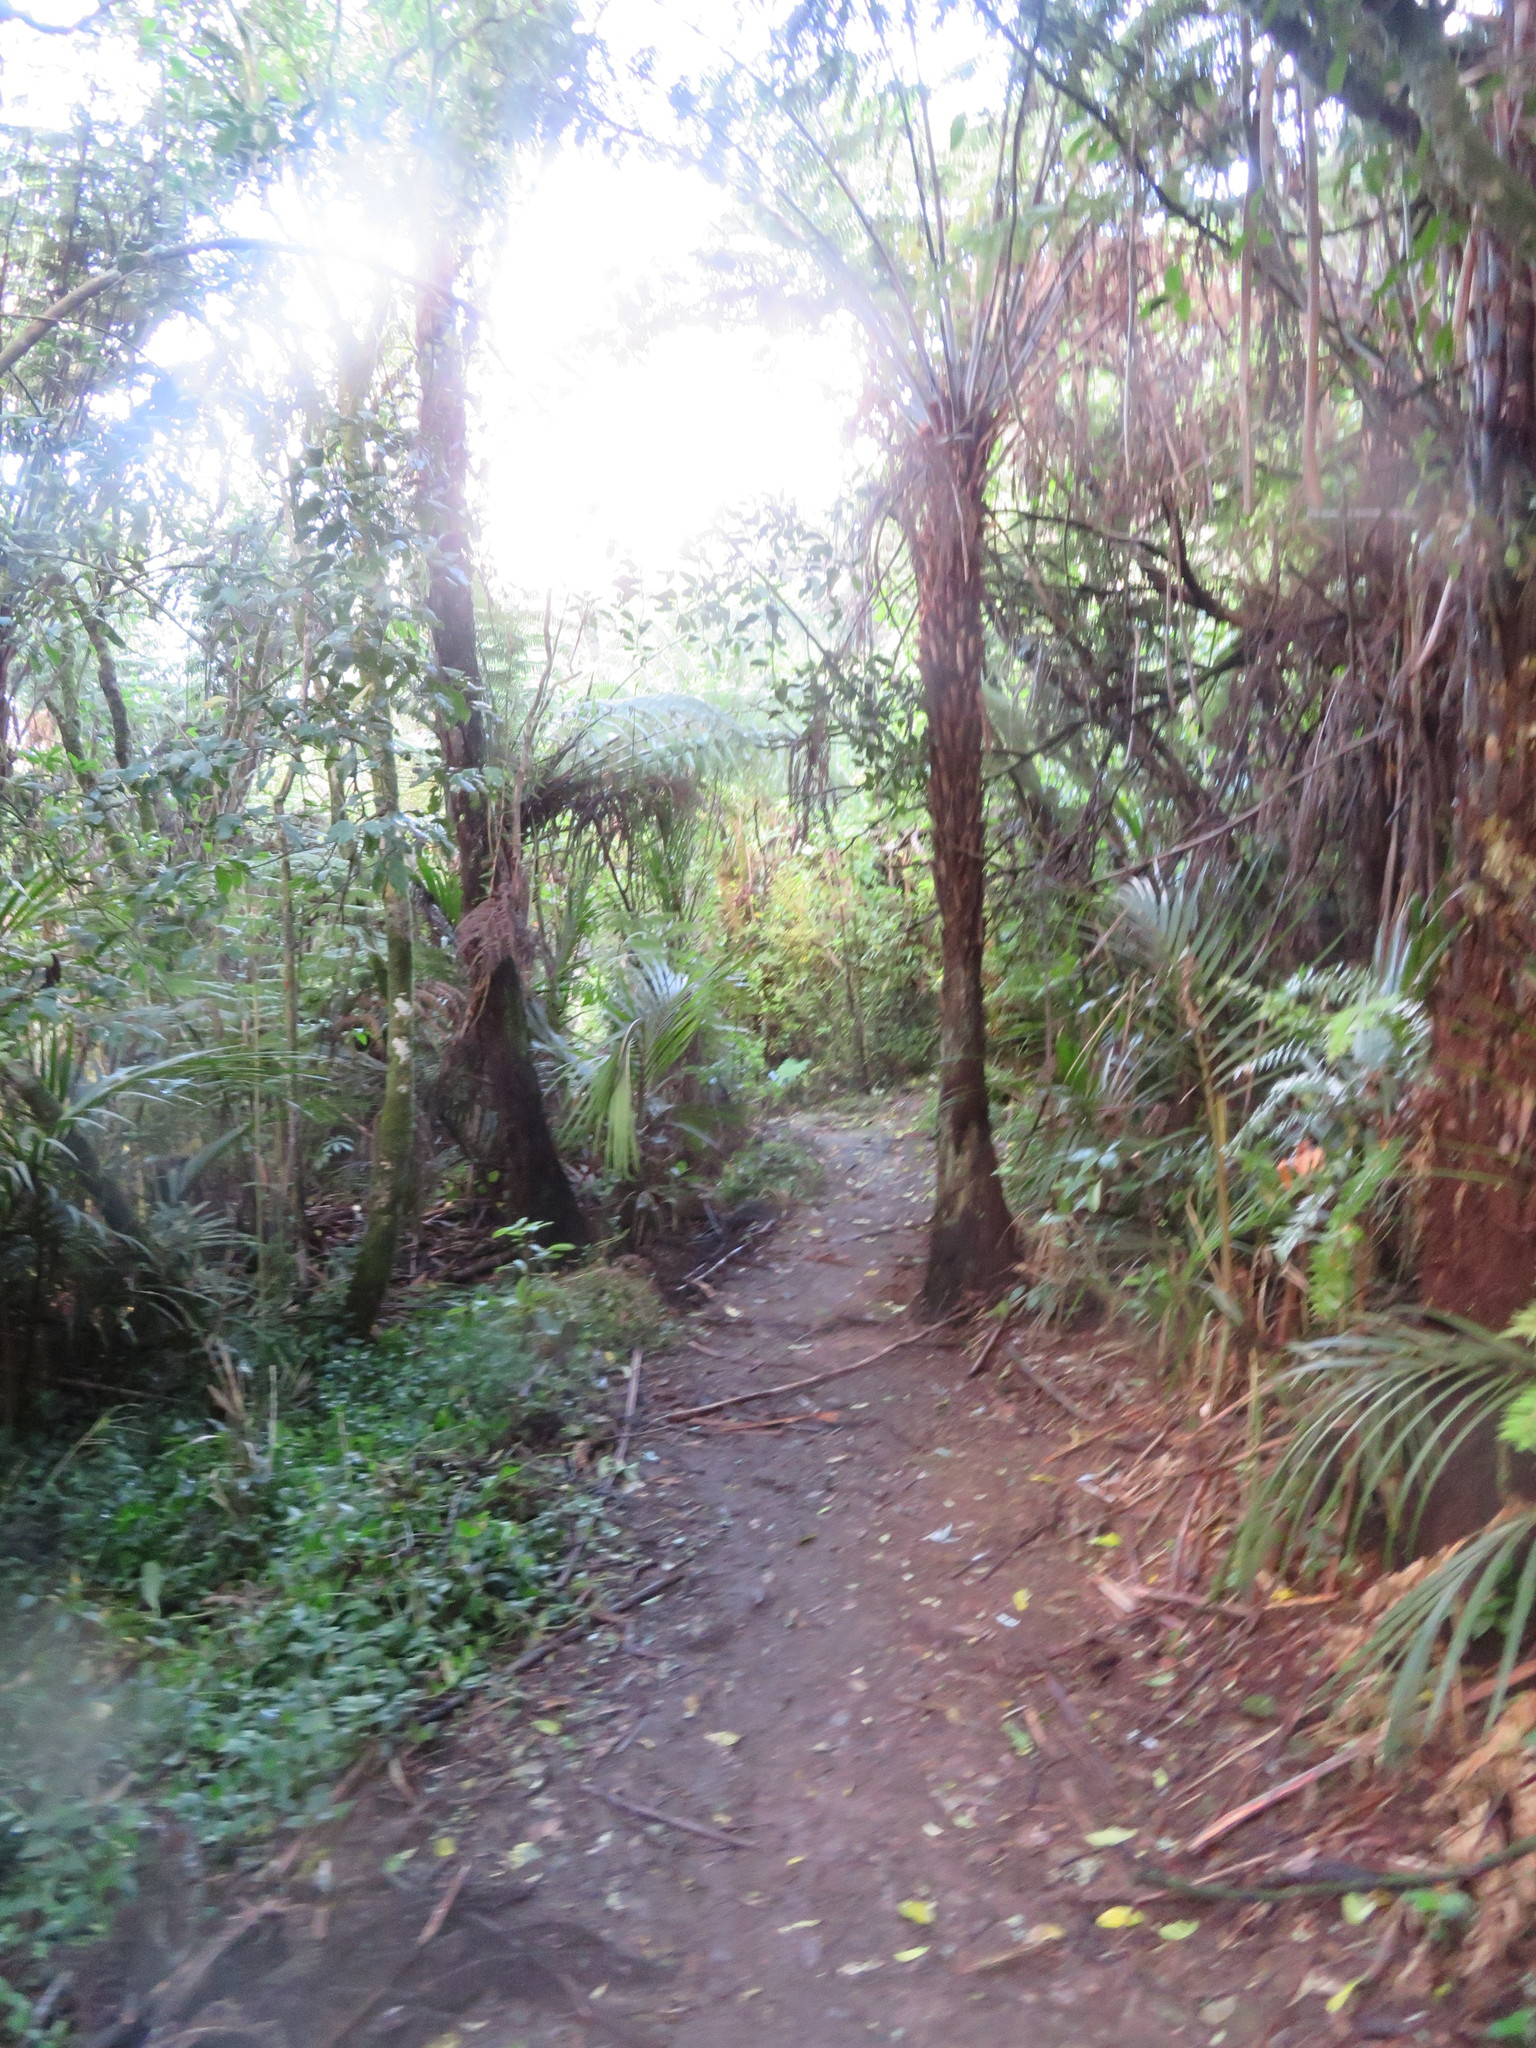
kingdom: Plantae
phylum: Tracheophyta
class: Liliopsida
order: Commelinales
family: Commelinaceae
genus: Tradescantia
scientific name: Tradescantia fluminensis
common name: Wandering-jew
